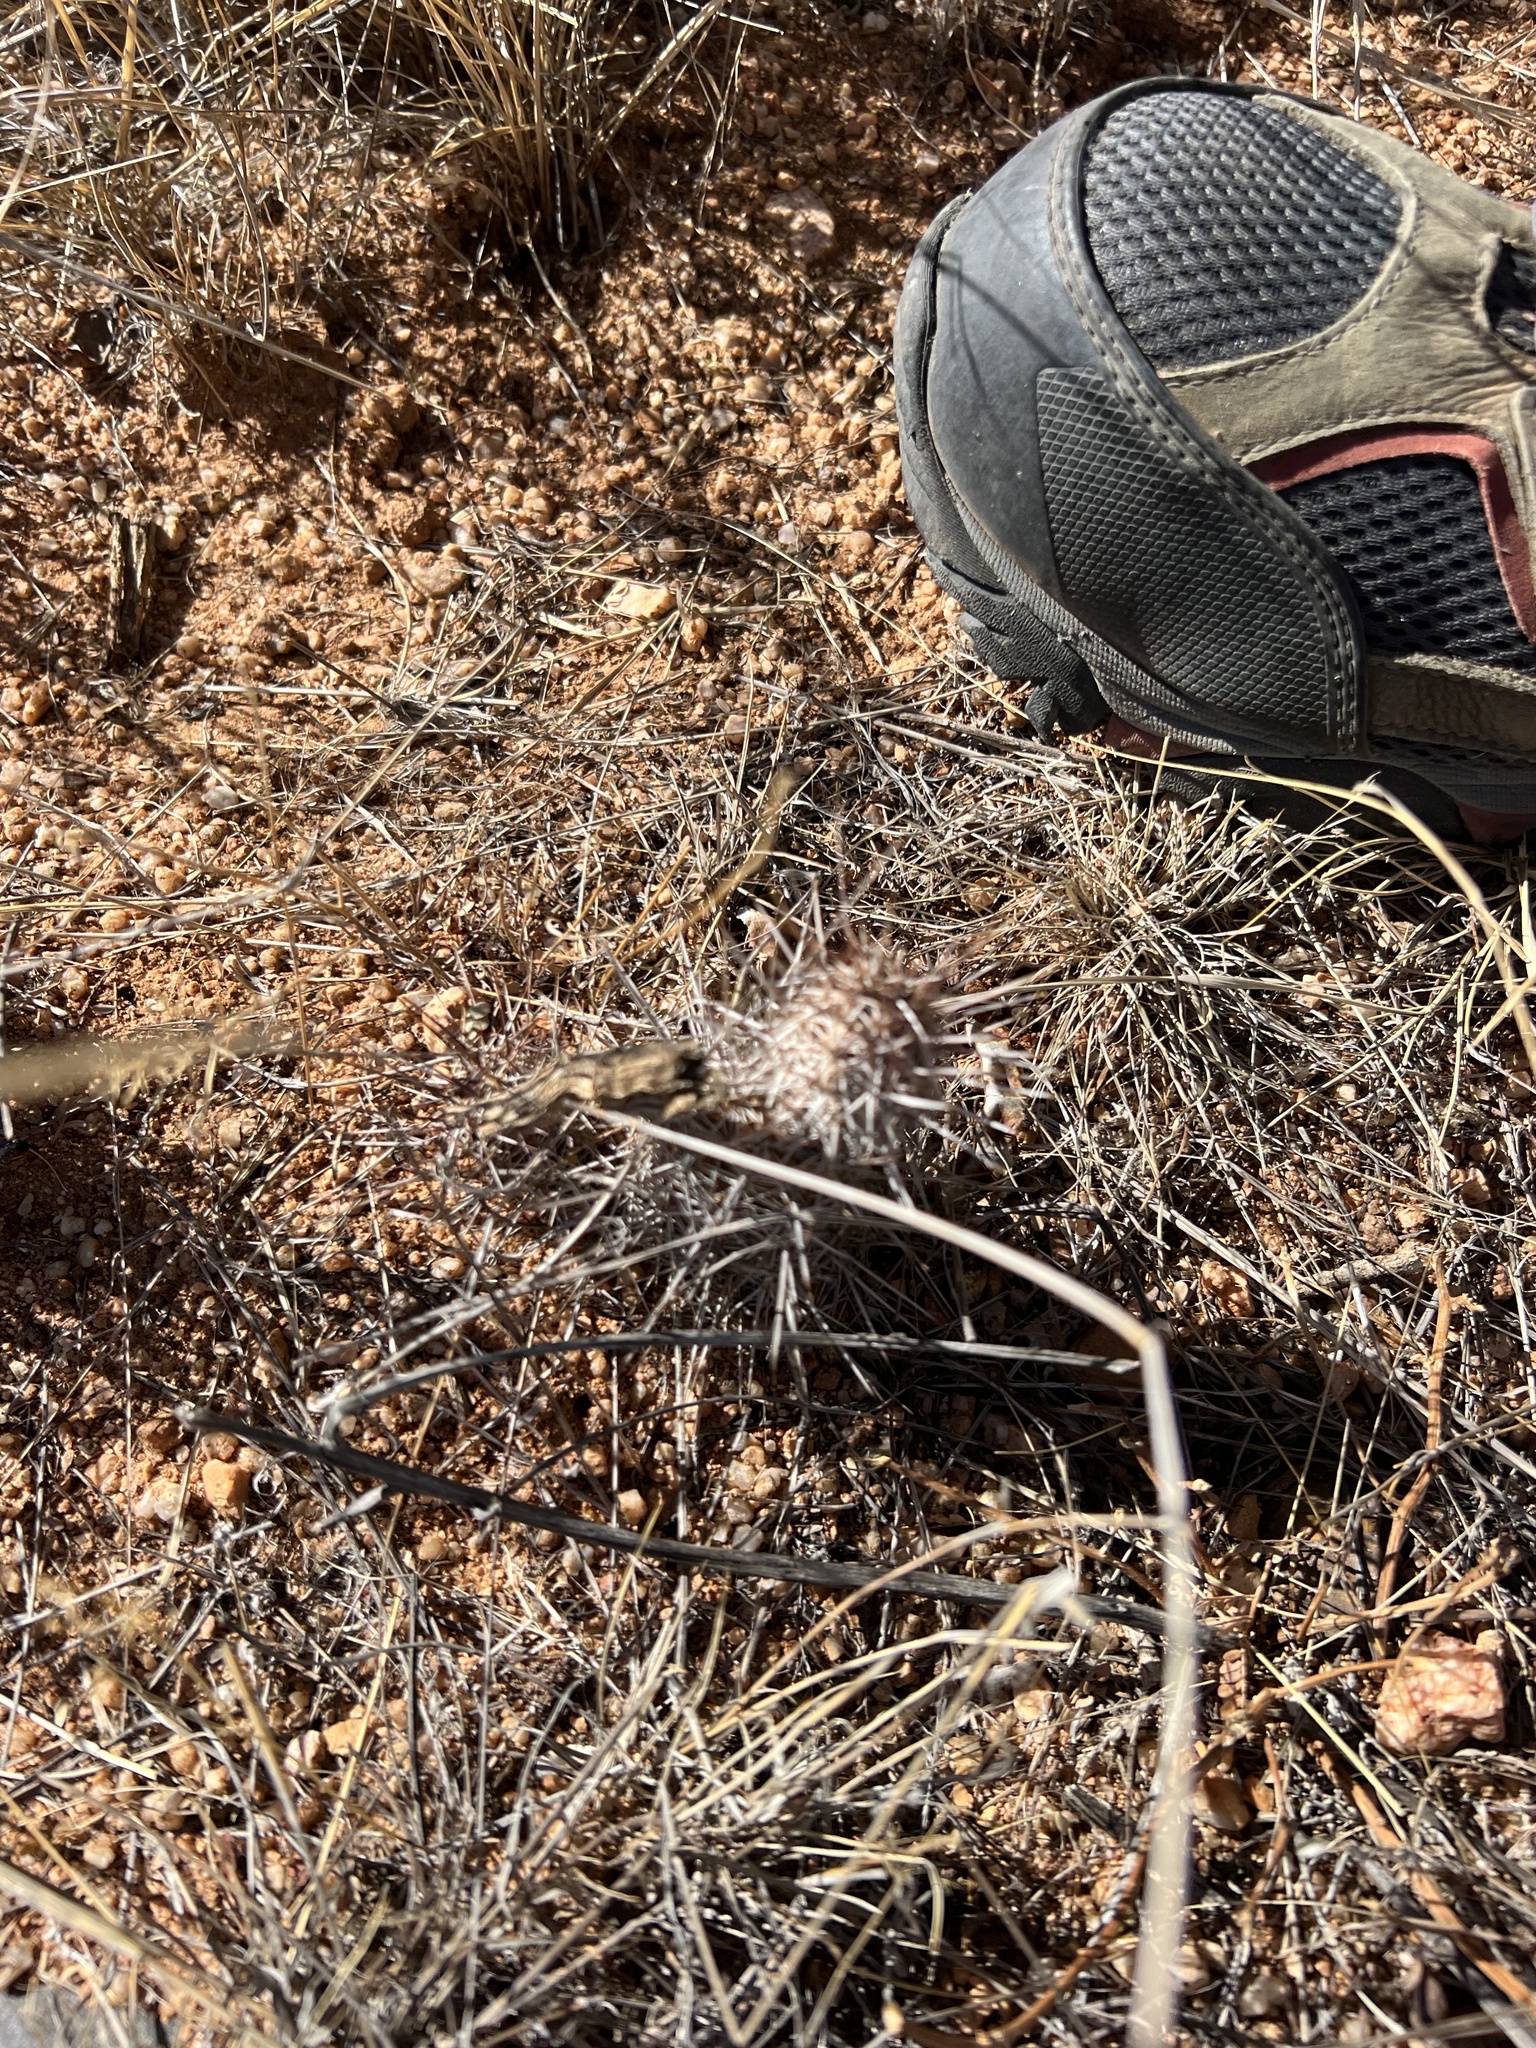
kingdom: Plantae
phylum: Tracheophyta
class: Magnoliopsida
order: Caryophyllales
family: Cactaceae
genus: Echinocereus
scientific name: Echinocereus fasciculatus
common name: Bundle hedgehog
